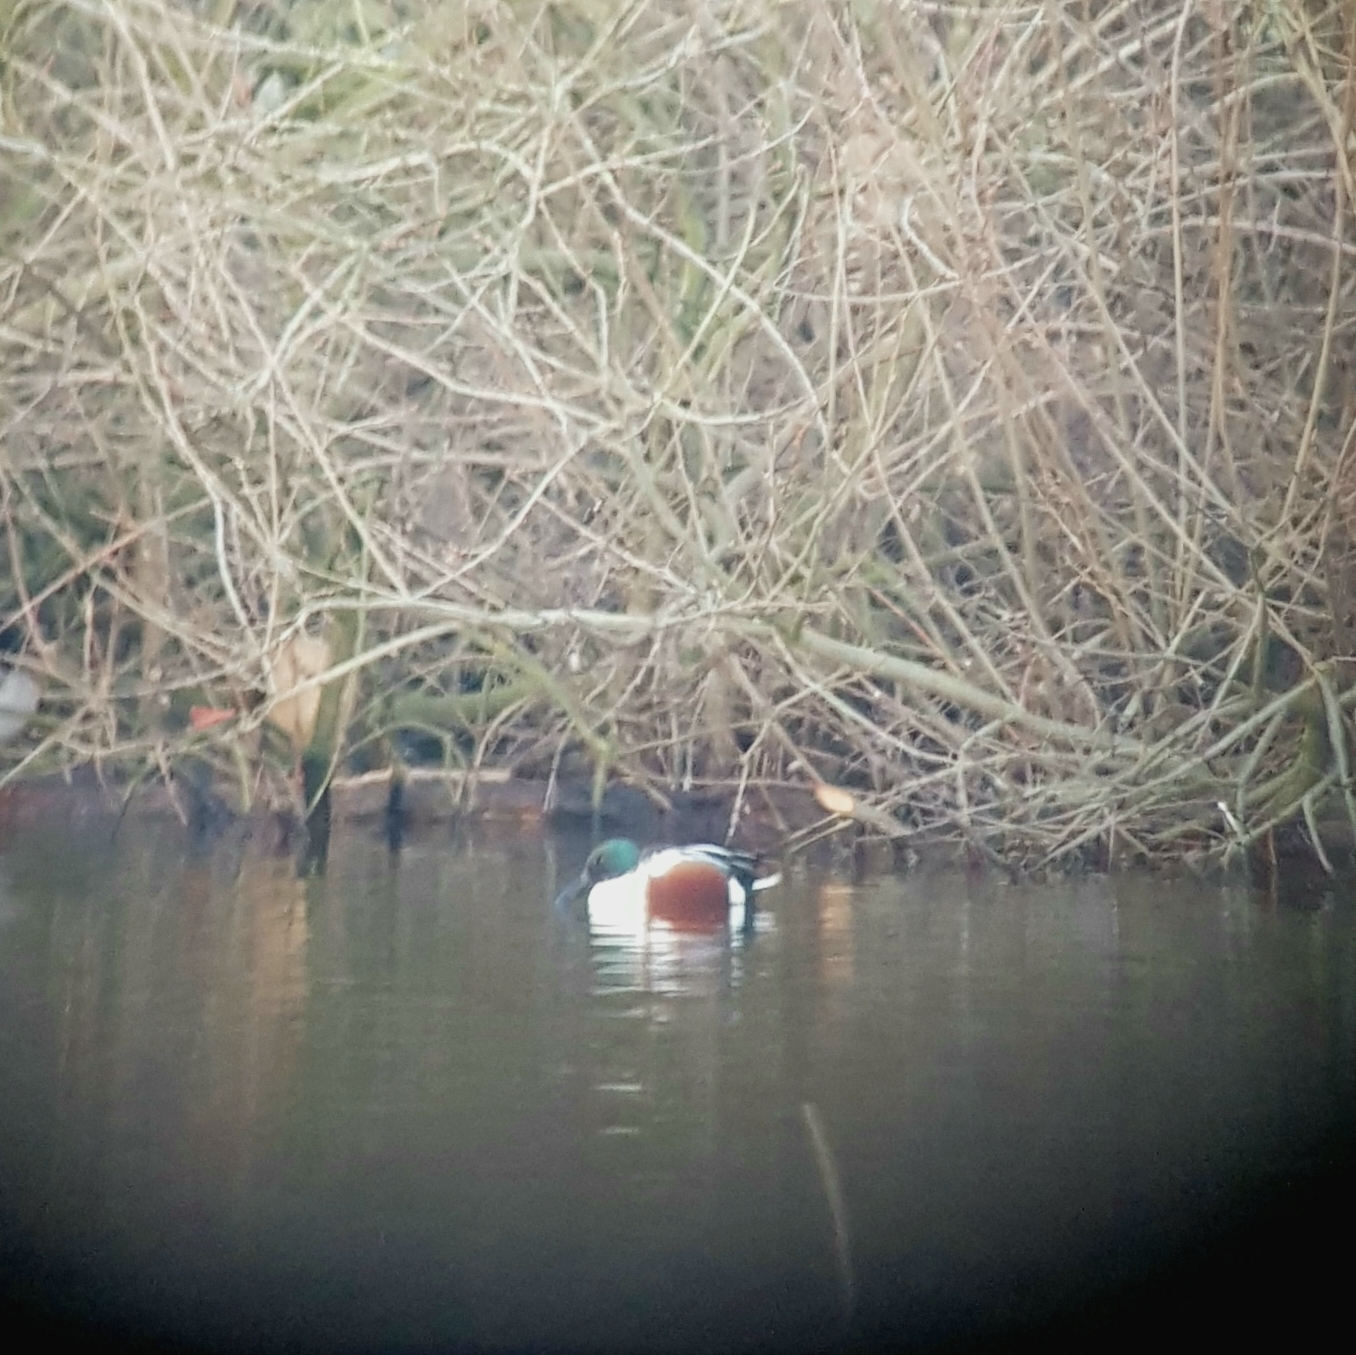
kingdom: Animalia
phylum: Chordata
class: Aves
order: Anseriformes
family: Anatidae
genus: Spatula
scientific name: Spatula clypeata
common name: Northern shoveler
